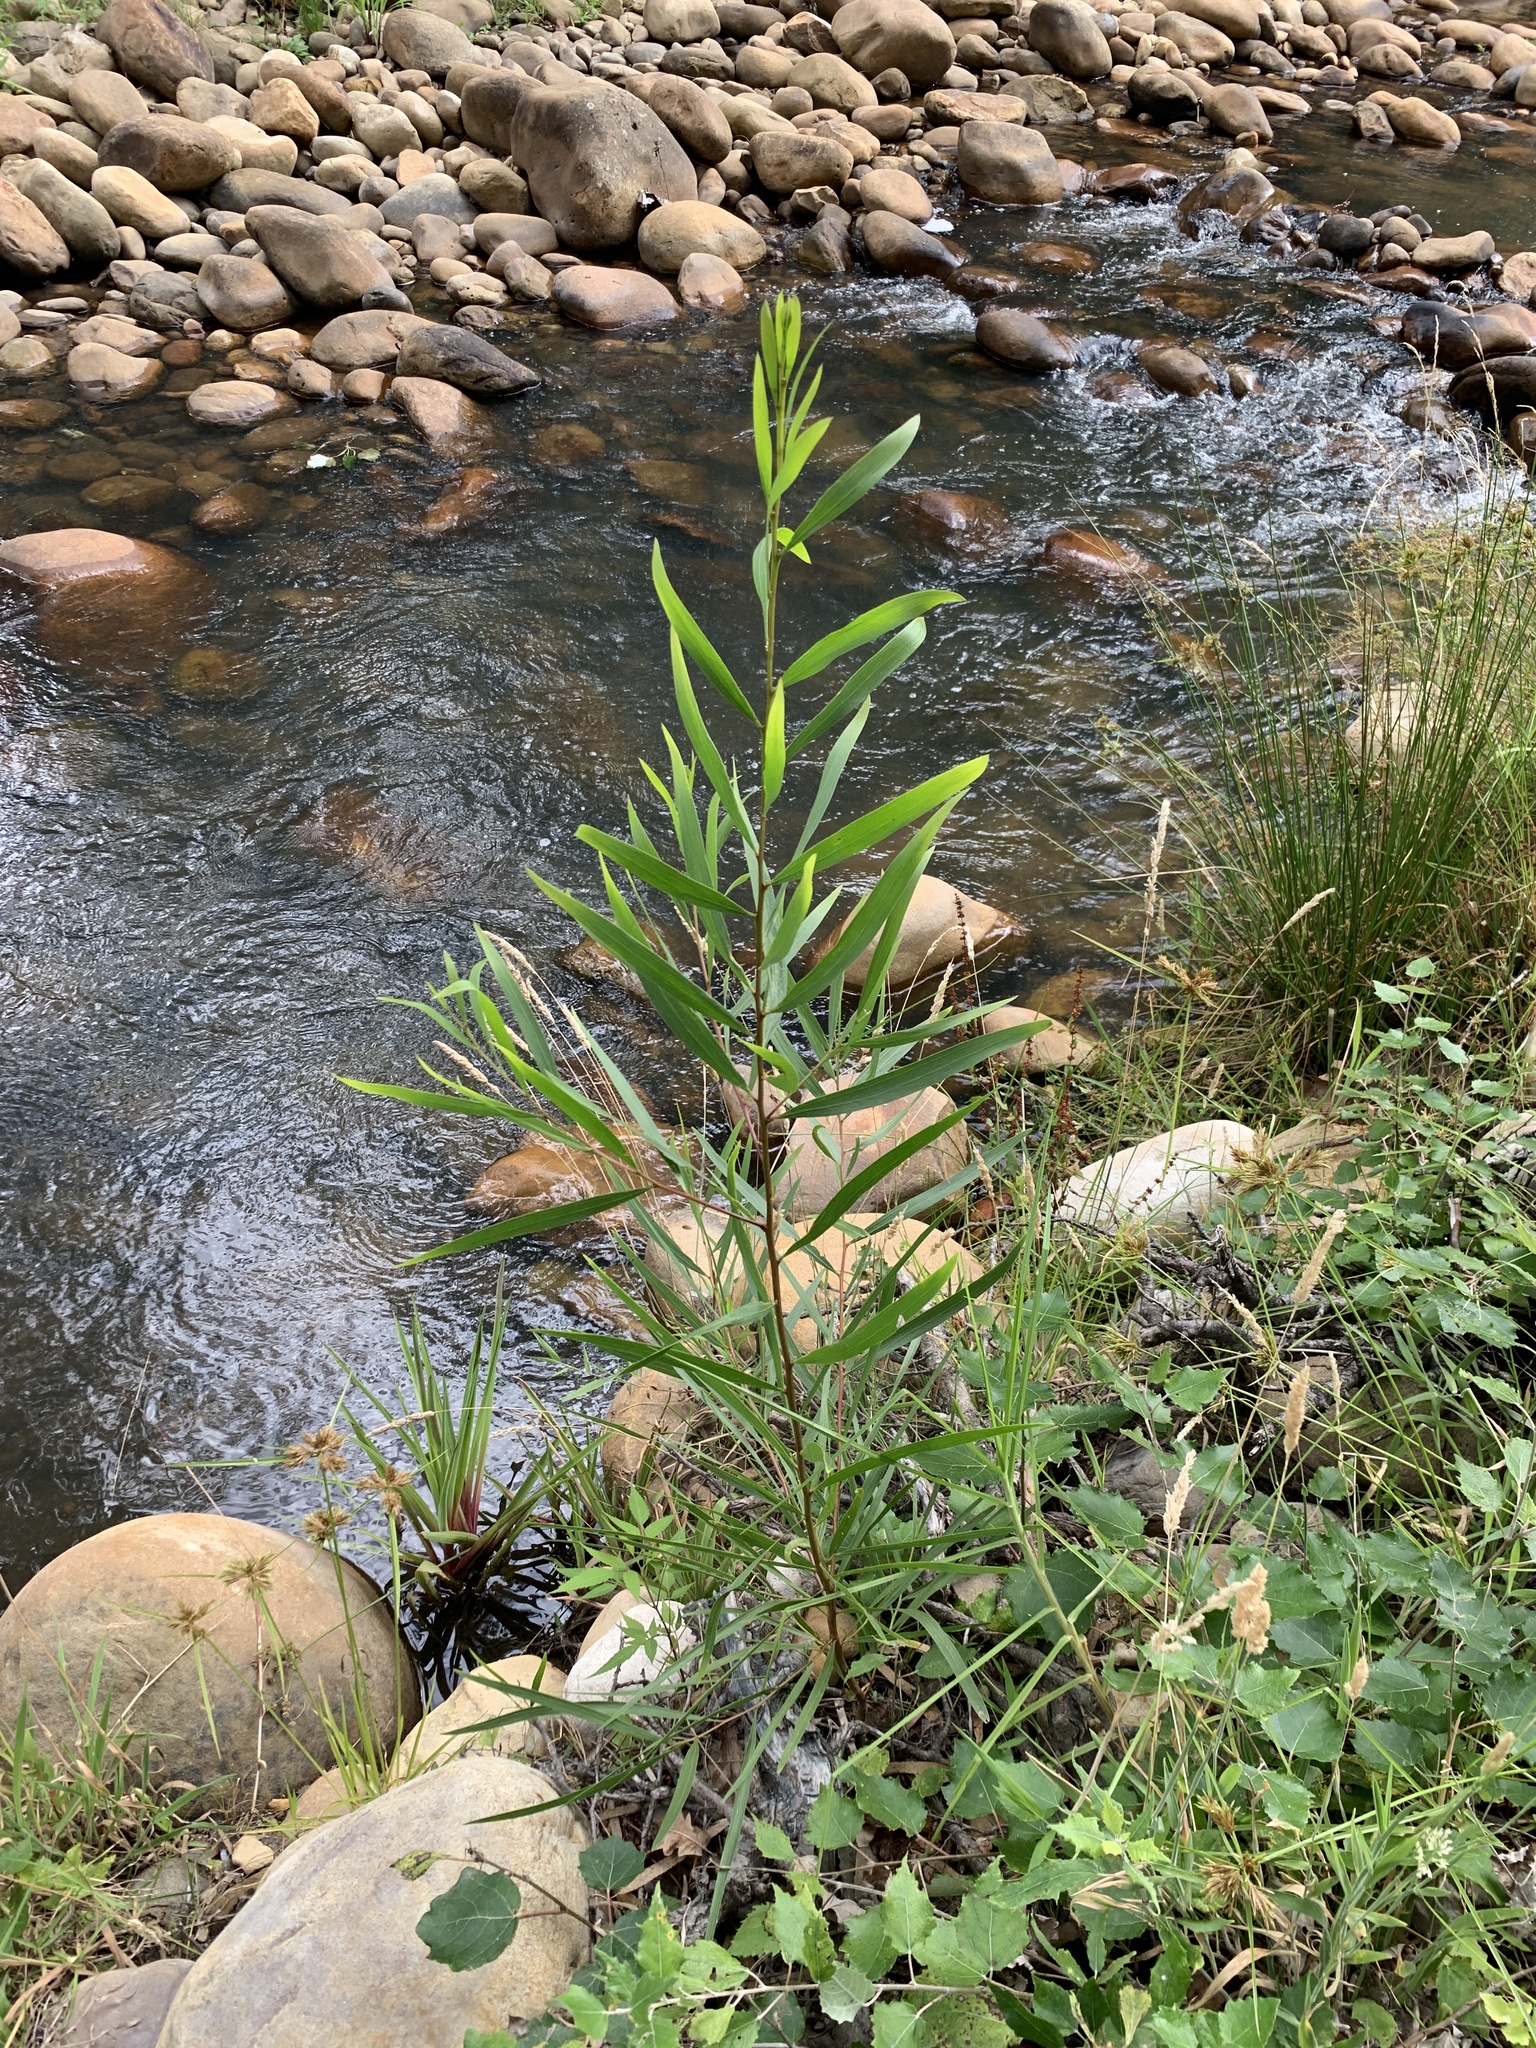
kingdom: Plantae
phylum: Tracheophyta
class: Magnoliopsida
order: Fabales
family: Fabaceae
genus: Acacia
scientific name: Acacia longifolia
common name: Sydney golden wattle
